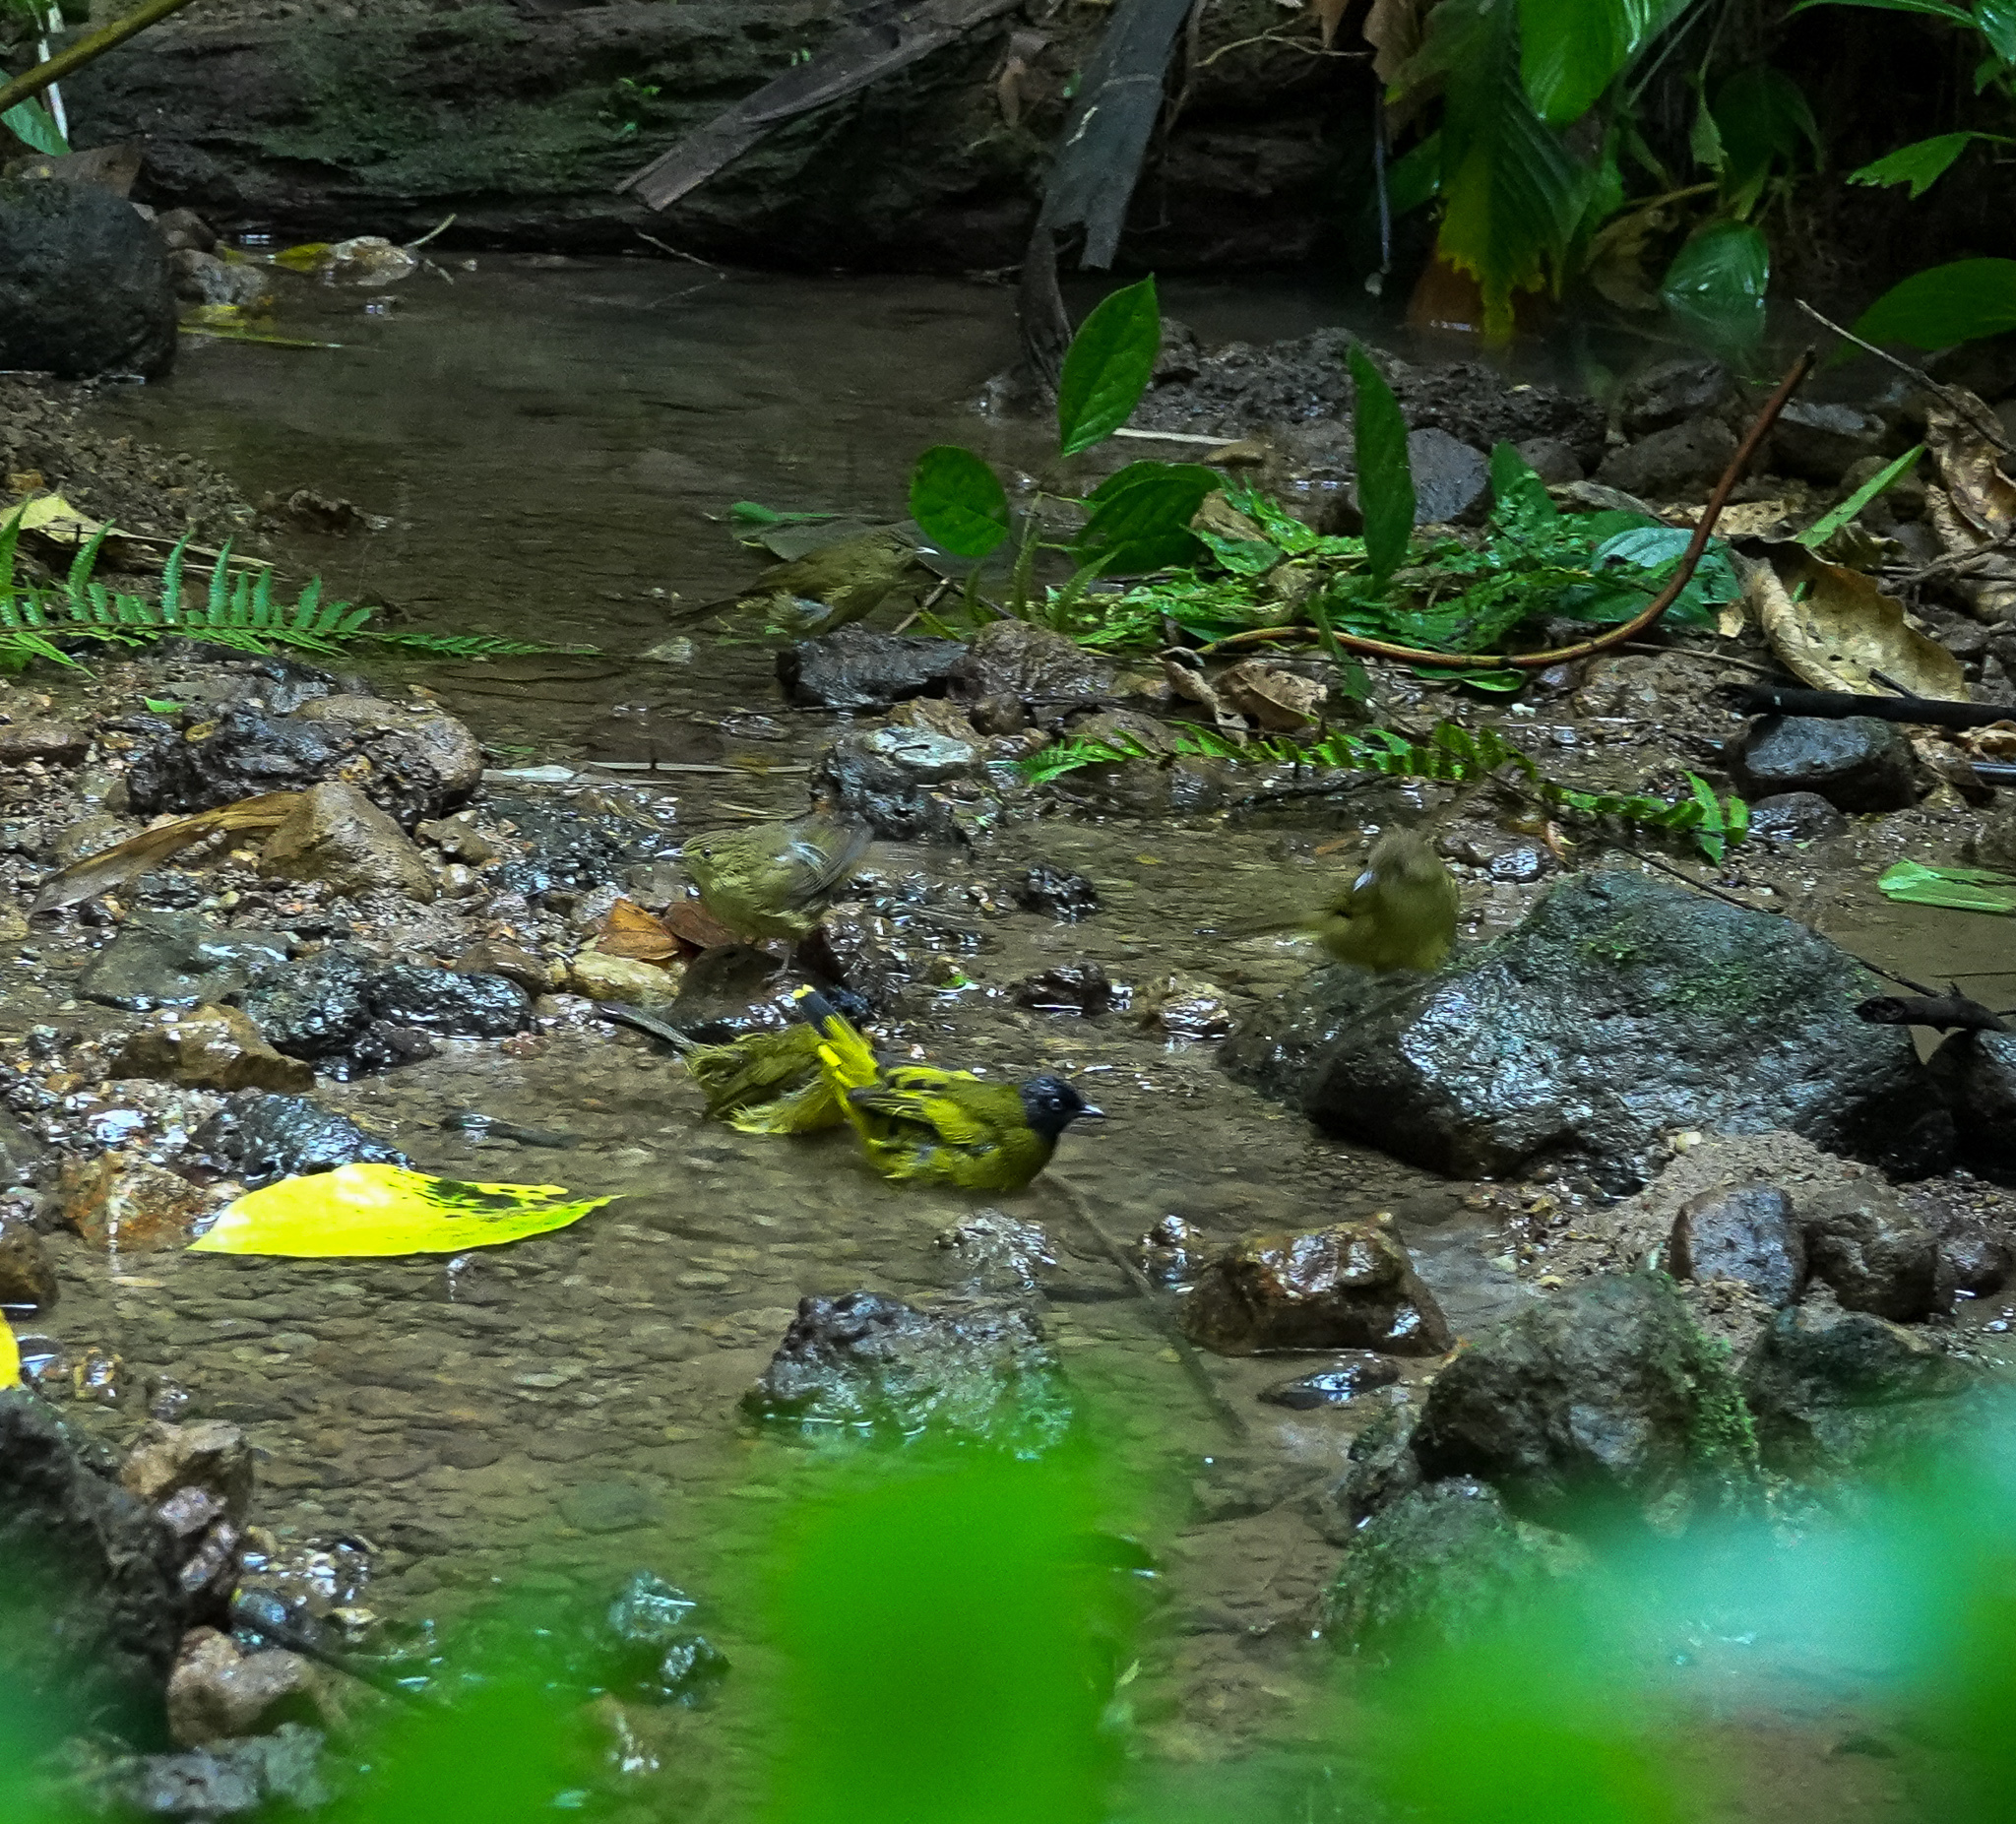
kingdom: Animalia
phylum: Chordata
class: Aves
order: Passeriformes
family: Pycnonotidae
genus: Microtarsus
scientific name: Microtarsus
